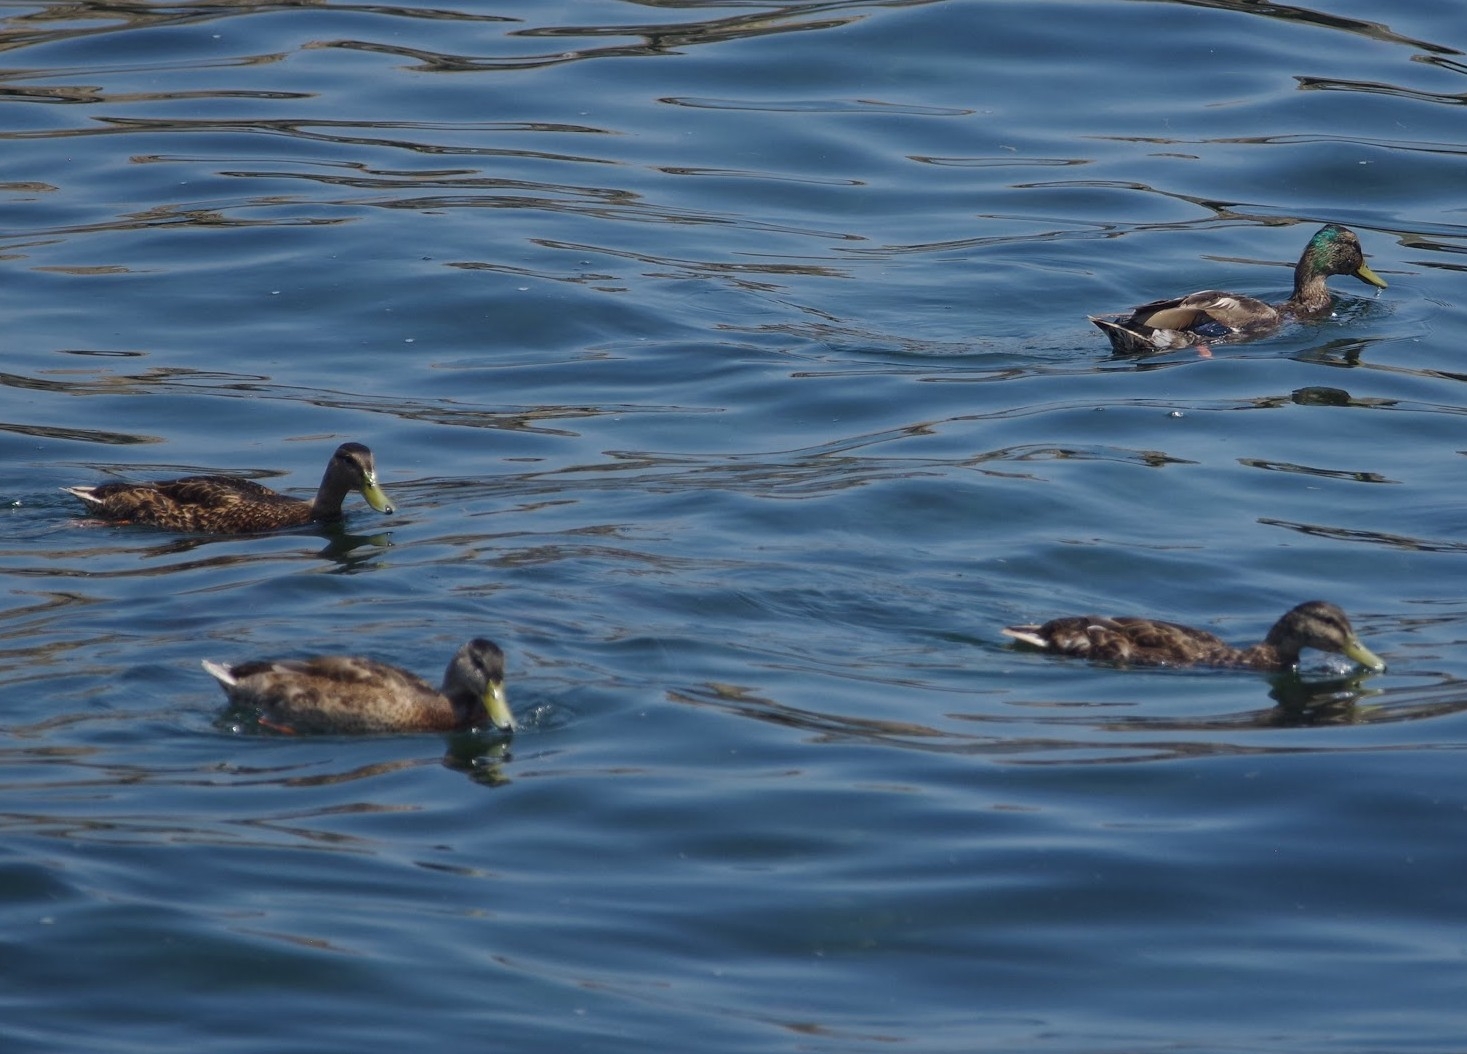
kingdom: Animalia
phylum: Chordata
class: Aves
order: Anseriformes
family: Anatidae
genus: Anas
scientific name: Anas platyrhynchos
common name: Mallard
